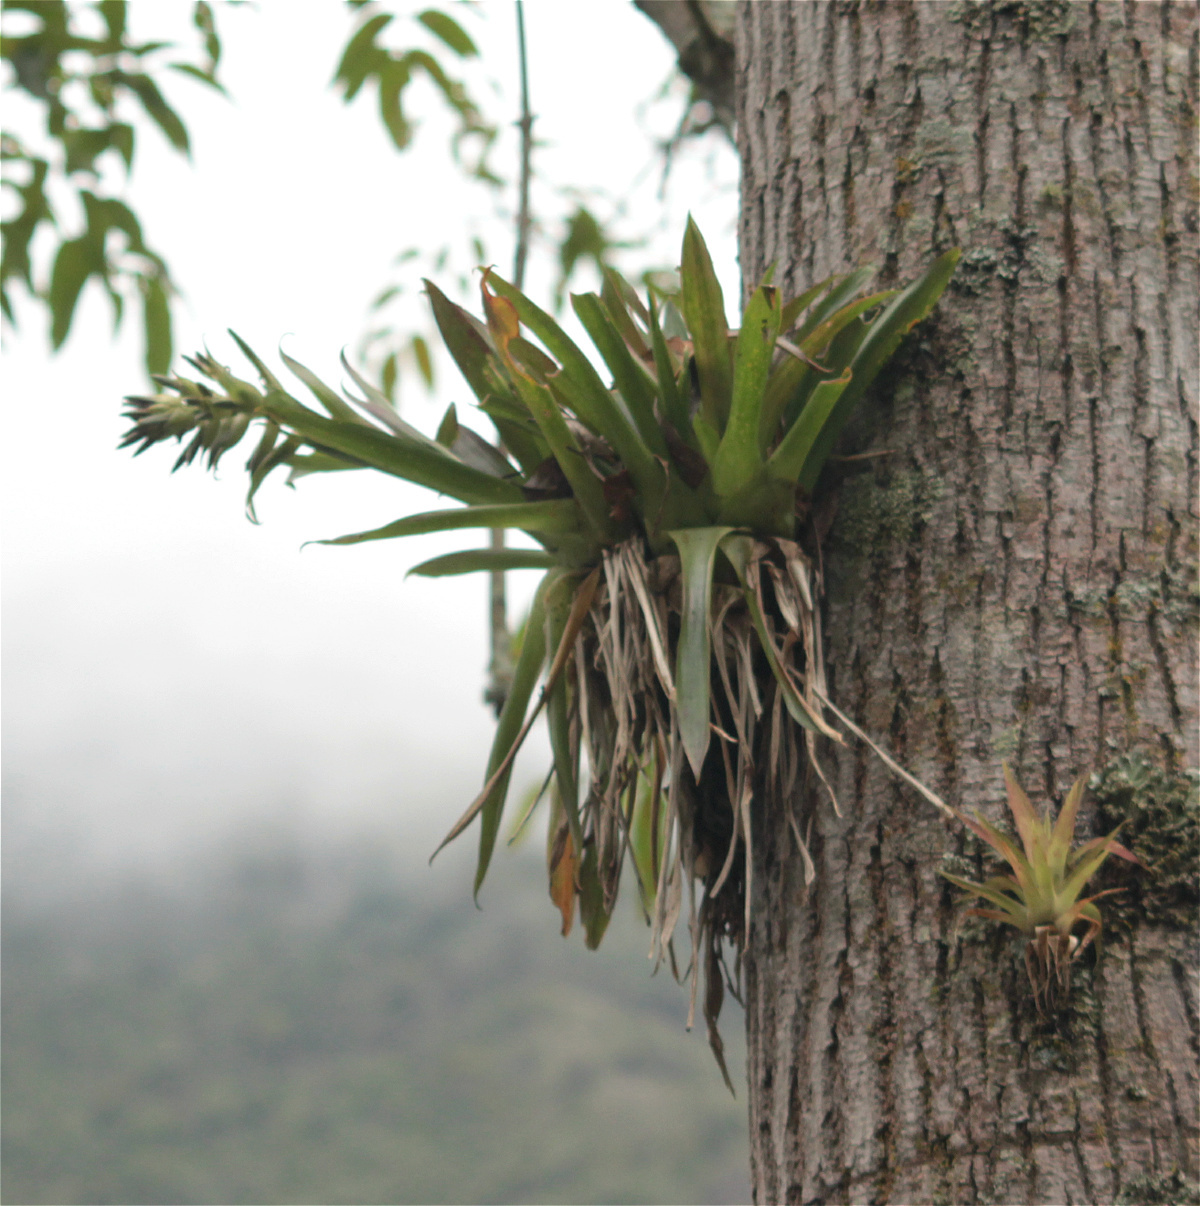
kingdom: Plantae
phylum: Tracheophyta
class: Liliopsida
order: Poales
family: Bromeliaceae
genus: Tillandsia
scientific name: Tillandsia biflora
